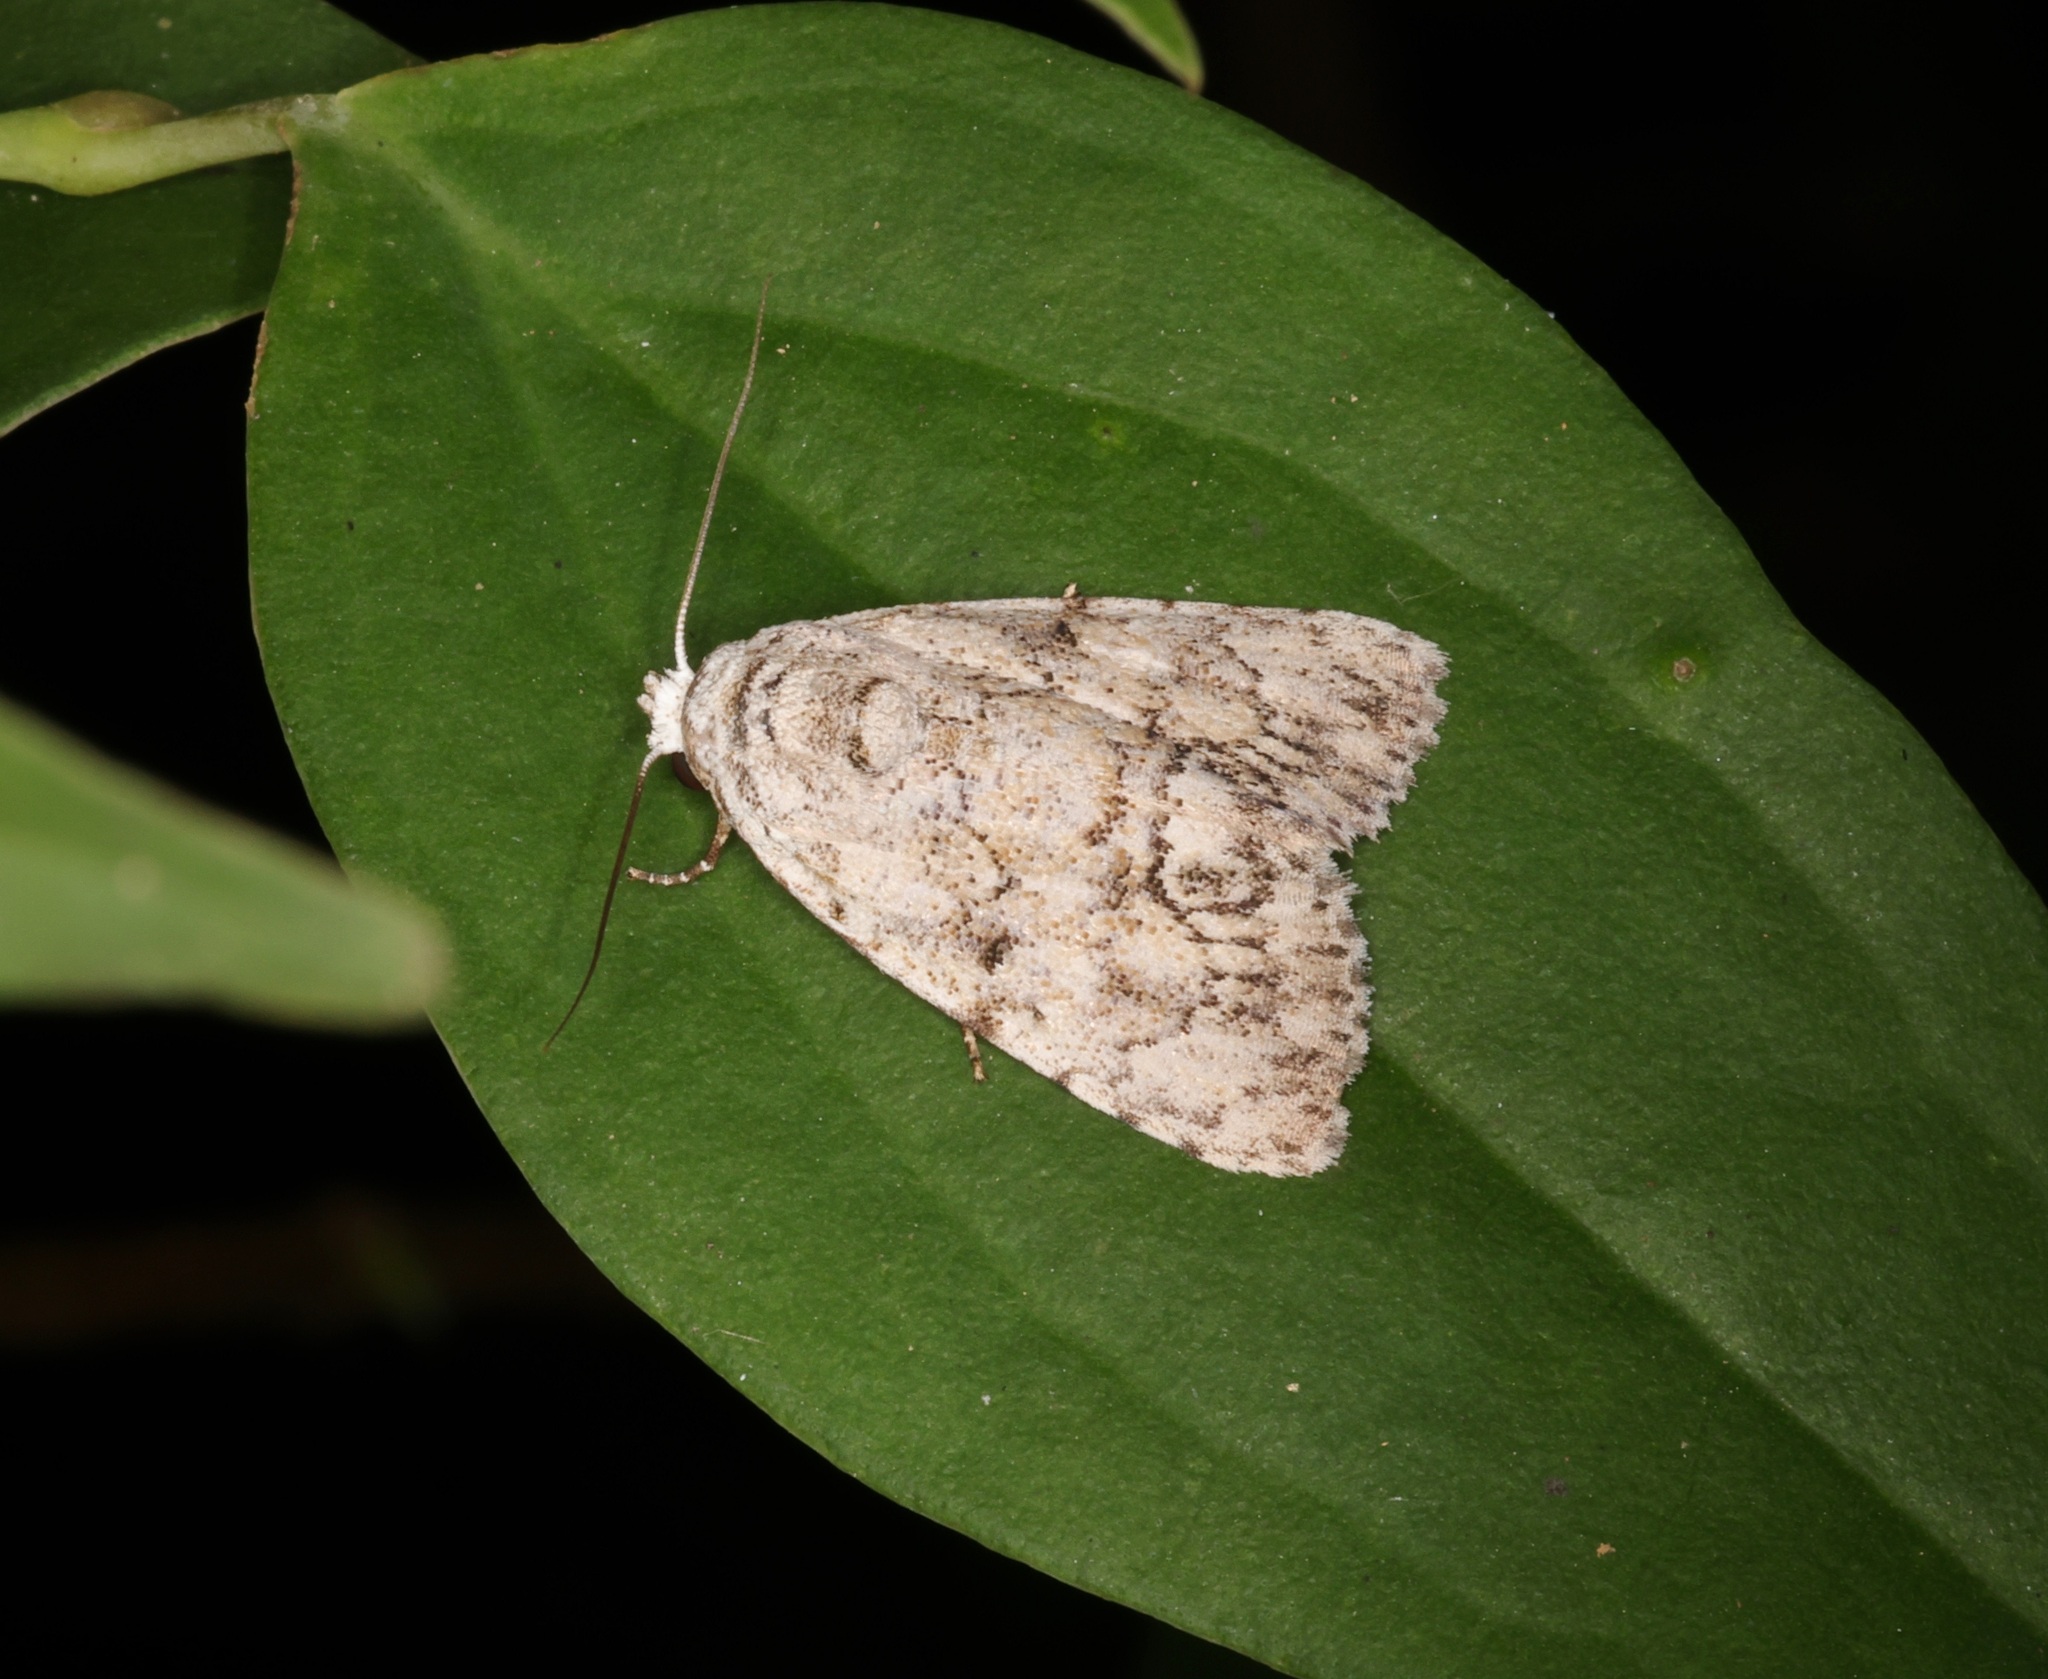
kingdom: Animalia
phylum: Arthropoda
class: Insecta
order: Lepidoptera
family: Nolidae
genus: Barasa
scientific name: Barasa acronyctoides
